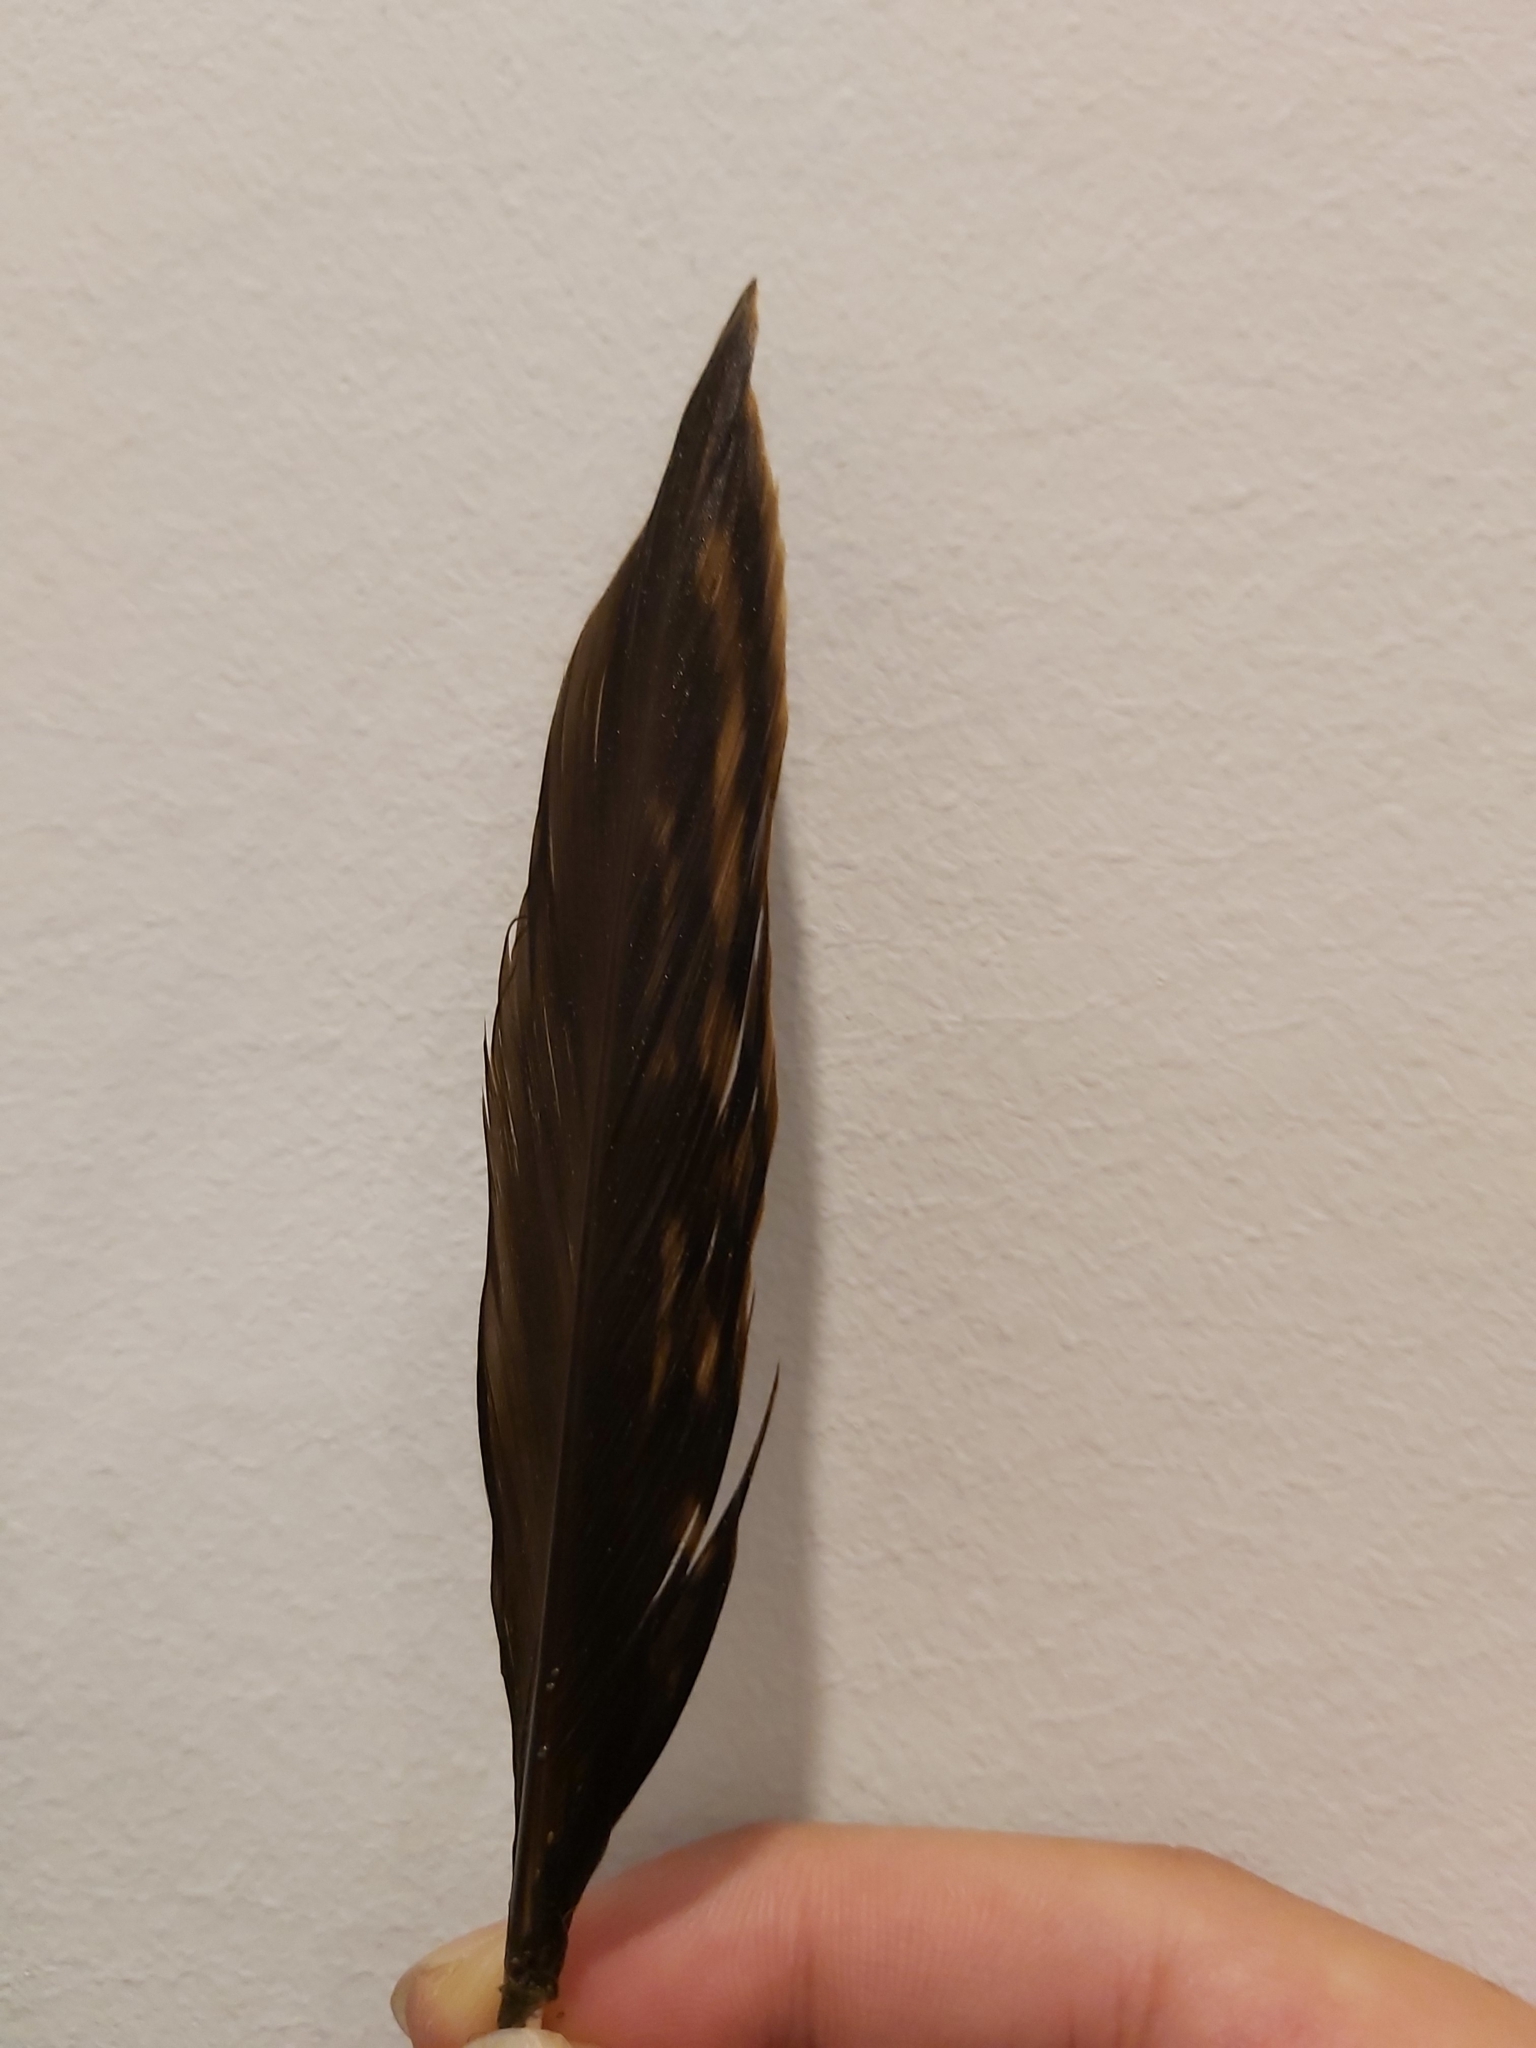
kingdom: Animalia
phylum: Chordata
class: Aves
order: Anseriformes
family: Anatidae
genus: Anas
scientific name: Anas superciliosa
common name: Pacific black duck
